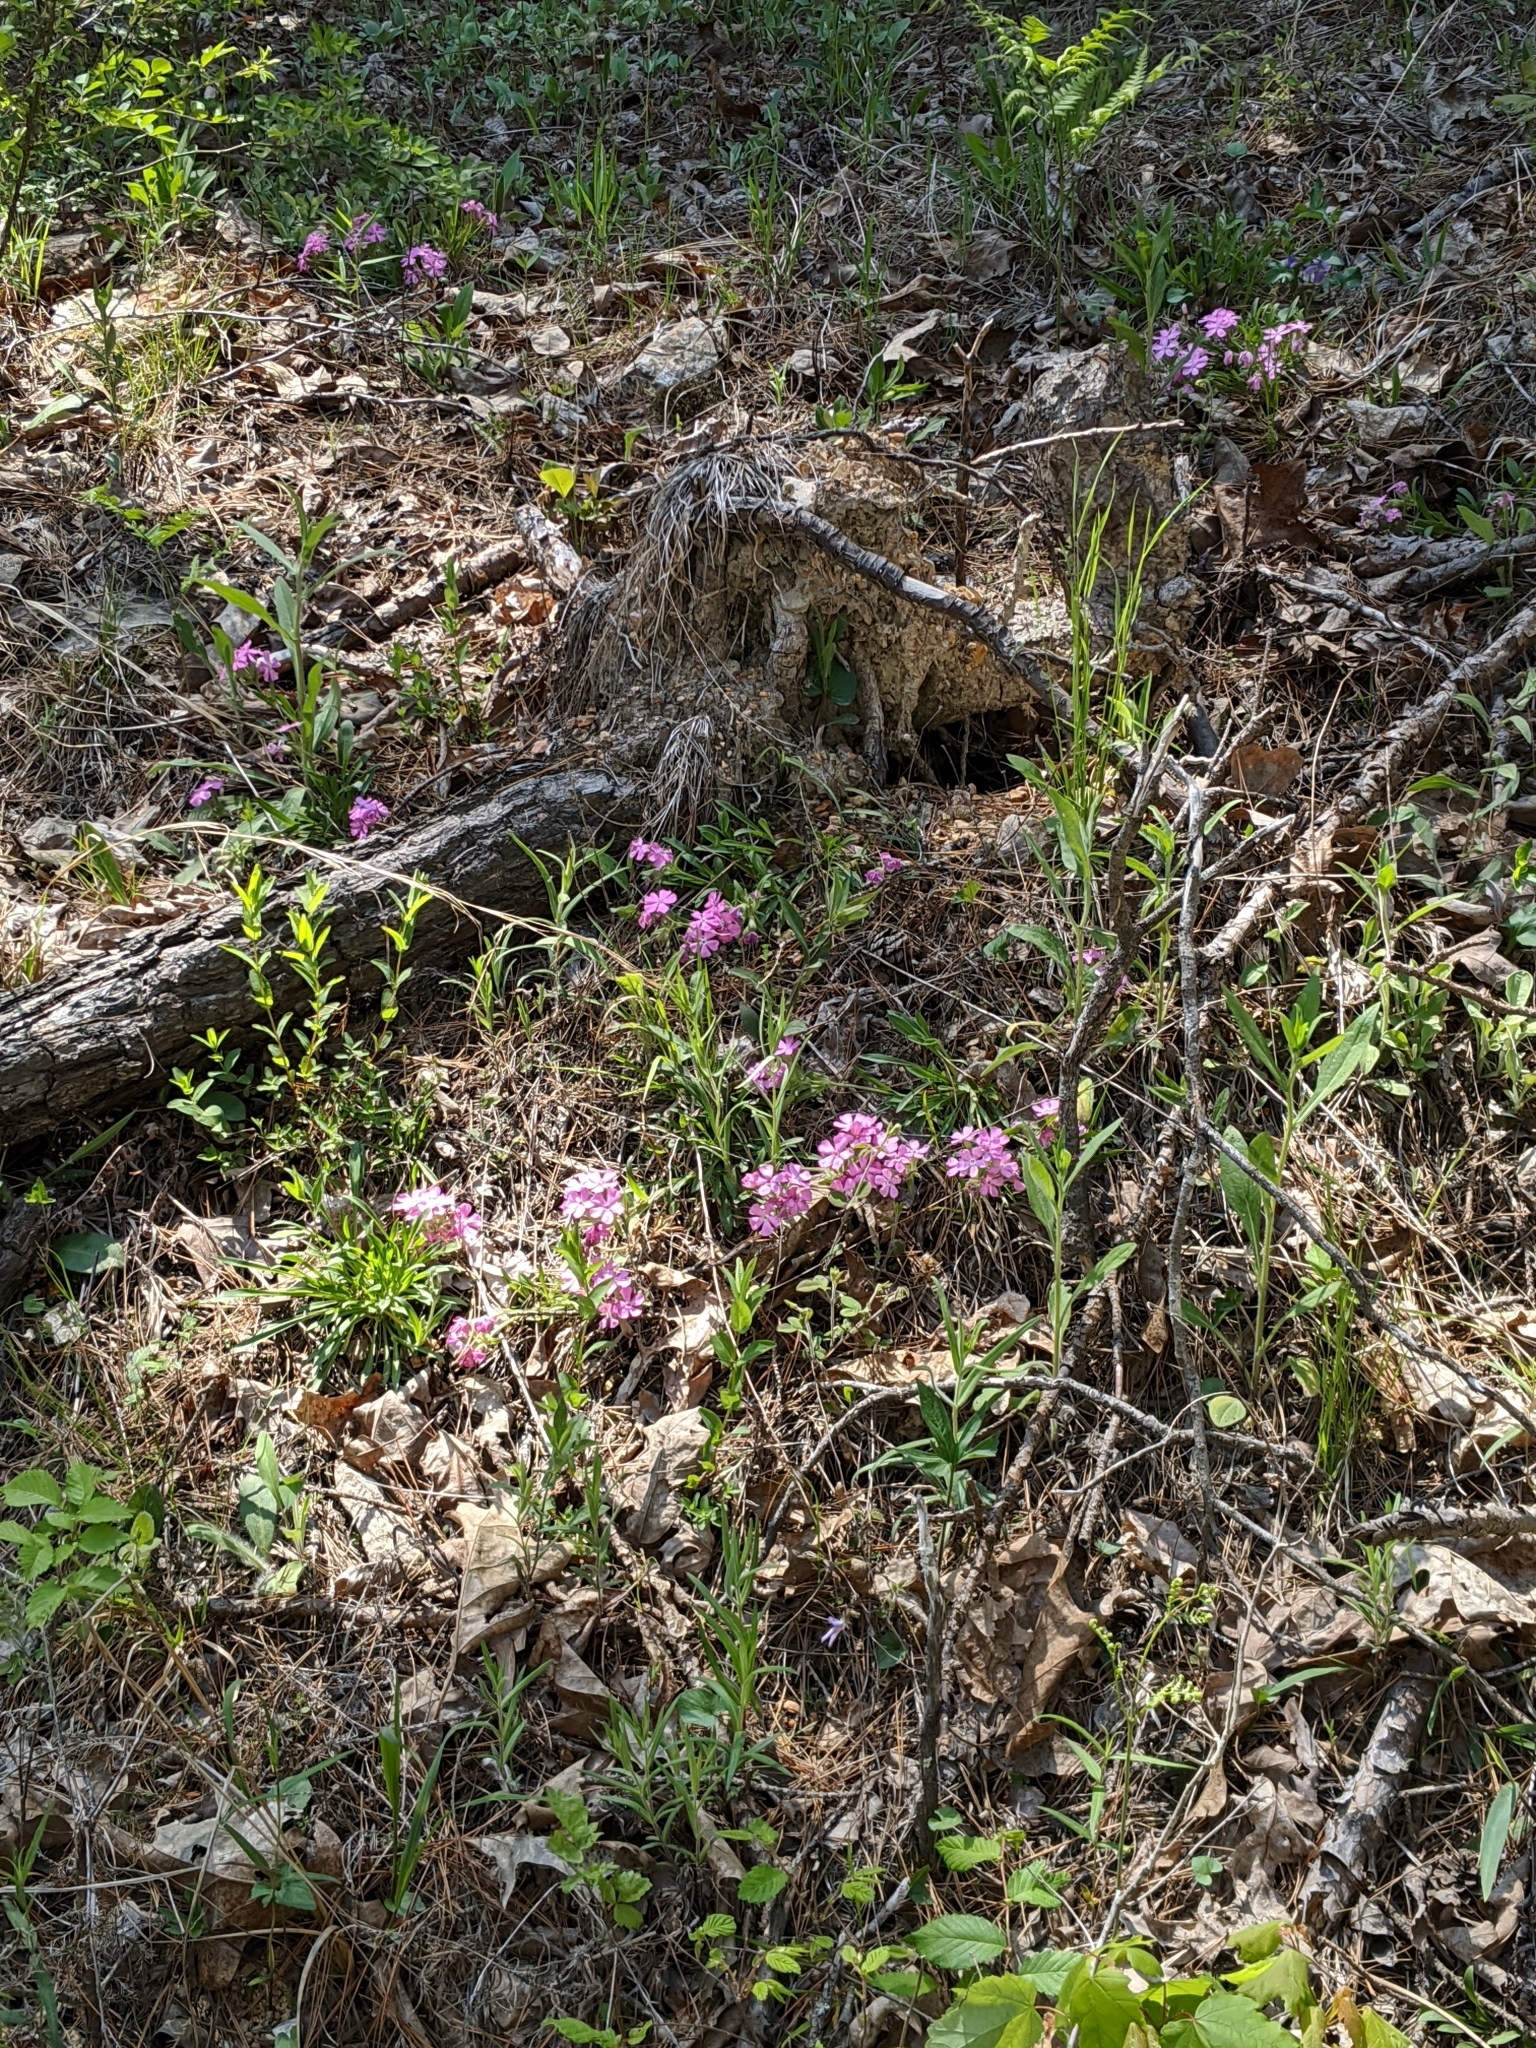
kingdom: Plantae
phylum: Tracheophyta
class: Magnoliopsida
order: Caryophyllales
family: Caryophyllaceae
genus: Silene
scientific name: Silene caroliniana
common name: Sticky catchfly
